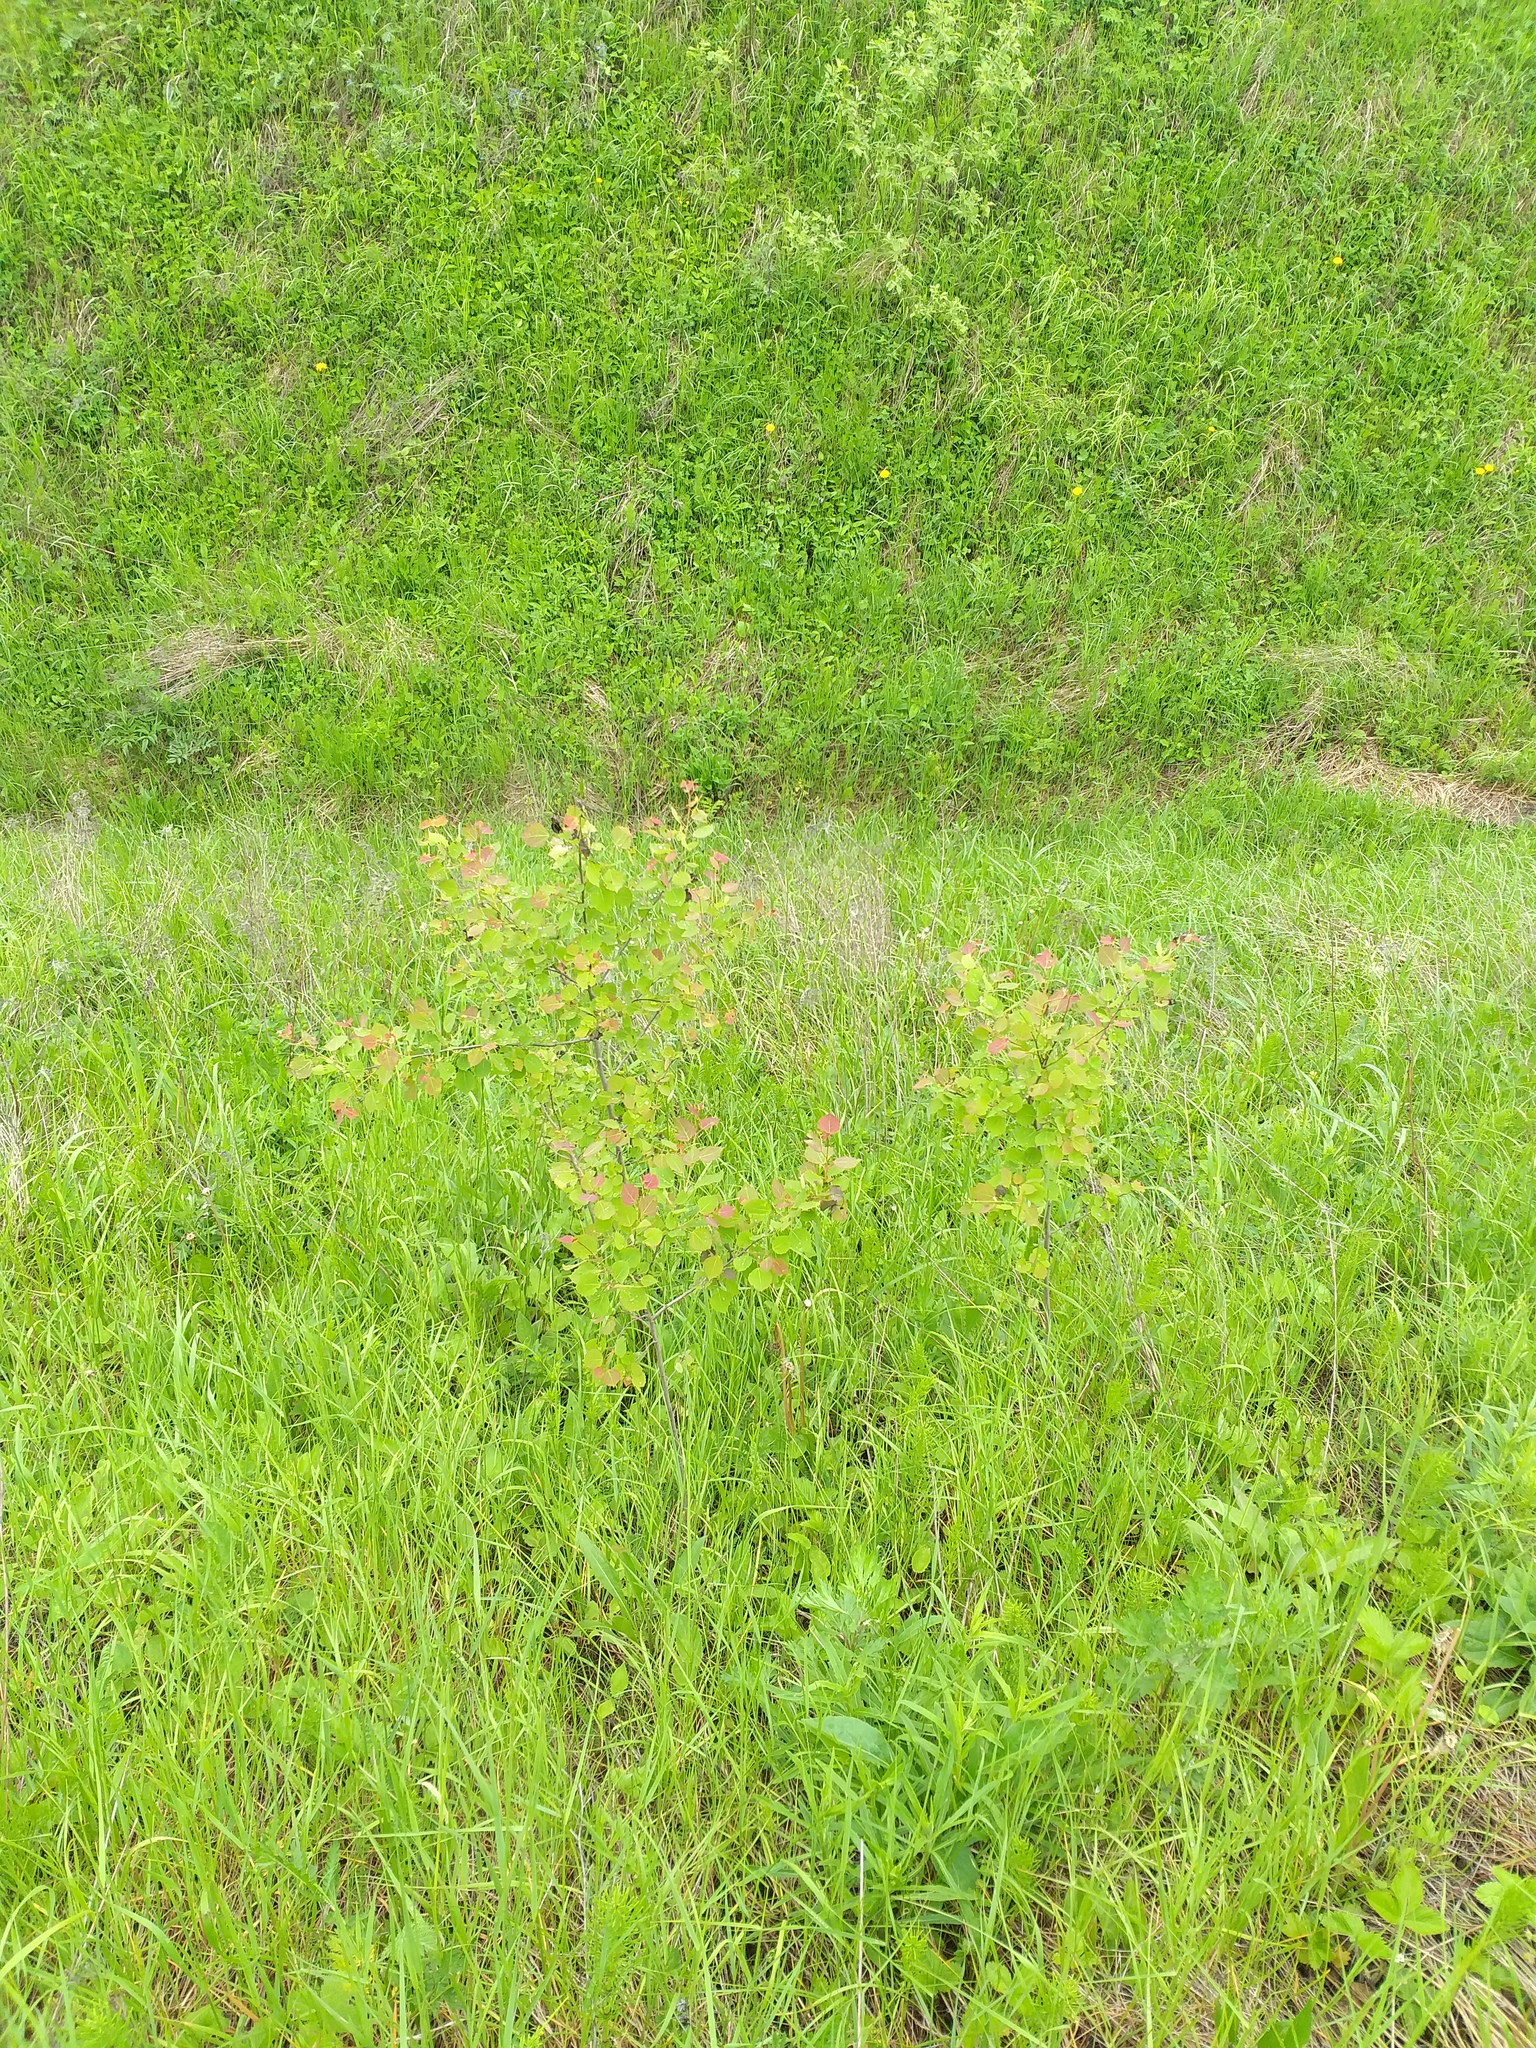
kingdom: Plantae
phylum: Tracheophyta
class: Magnoliopsida
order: Malpighiales
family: Salicaceae
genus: Populus
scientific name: Populus tremula
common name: European aspen
